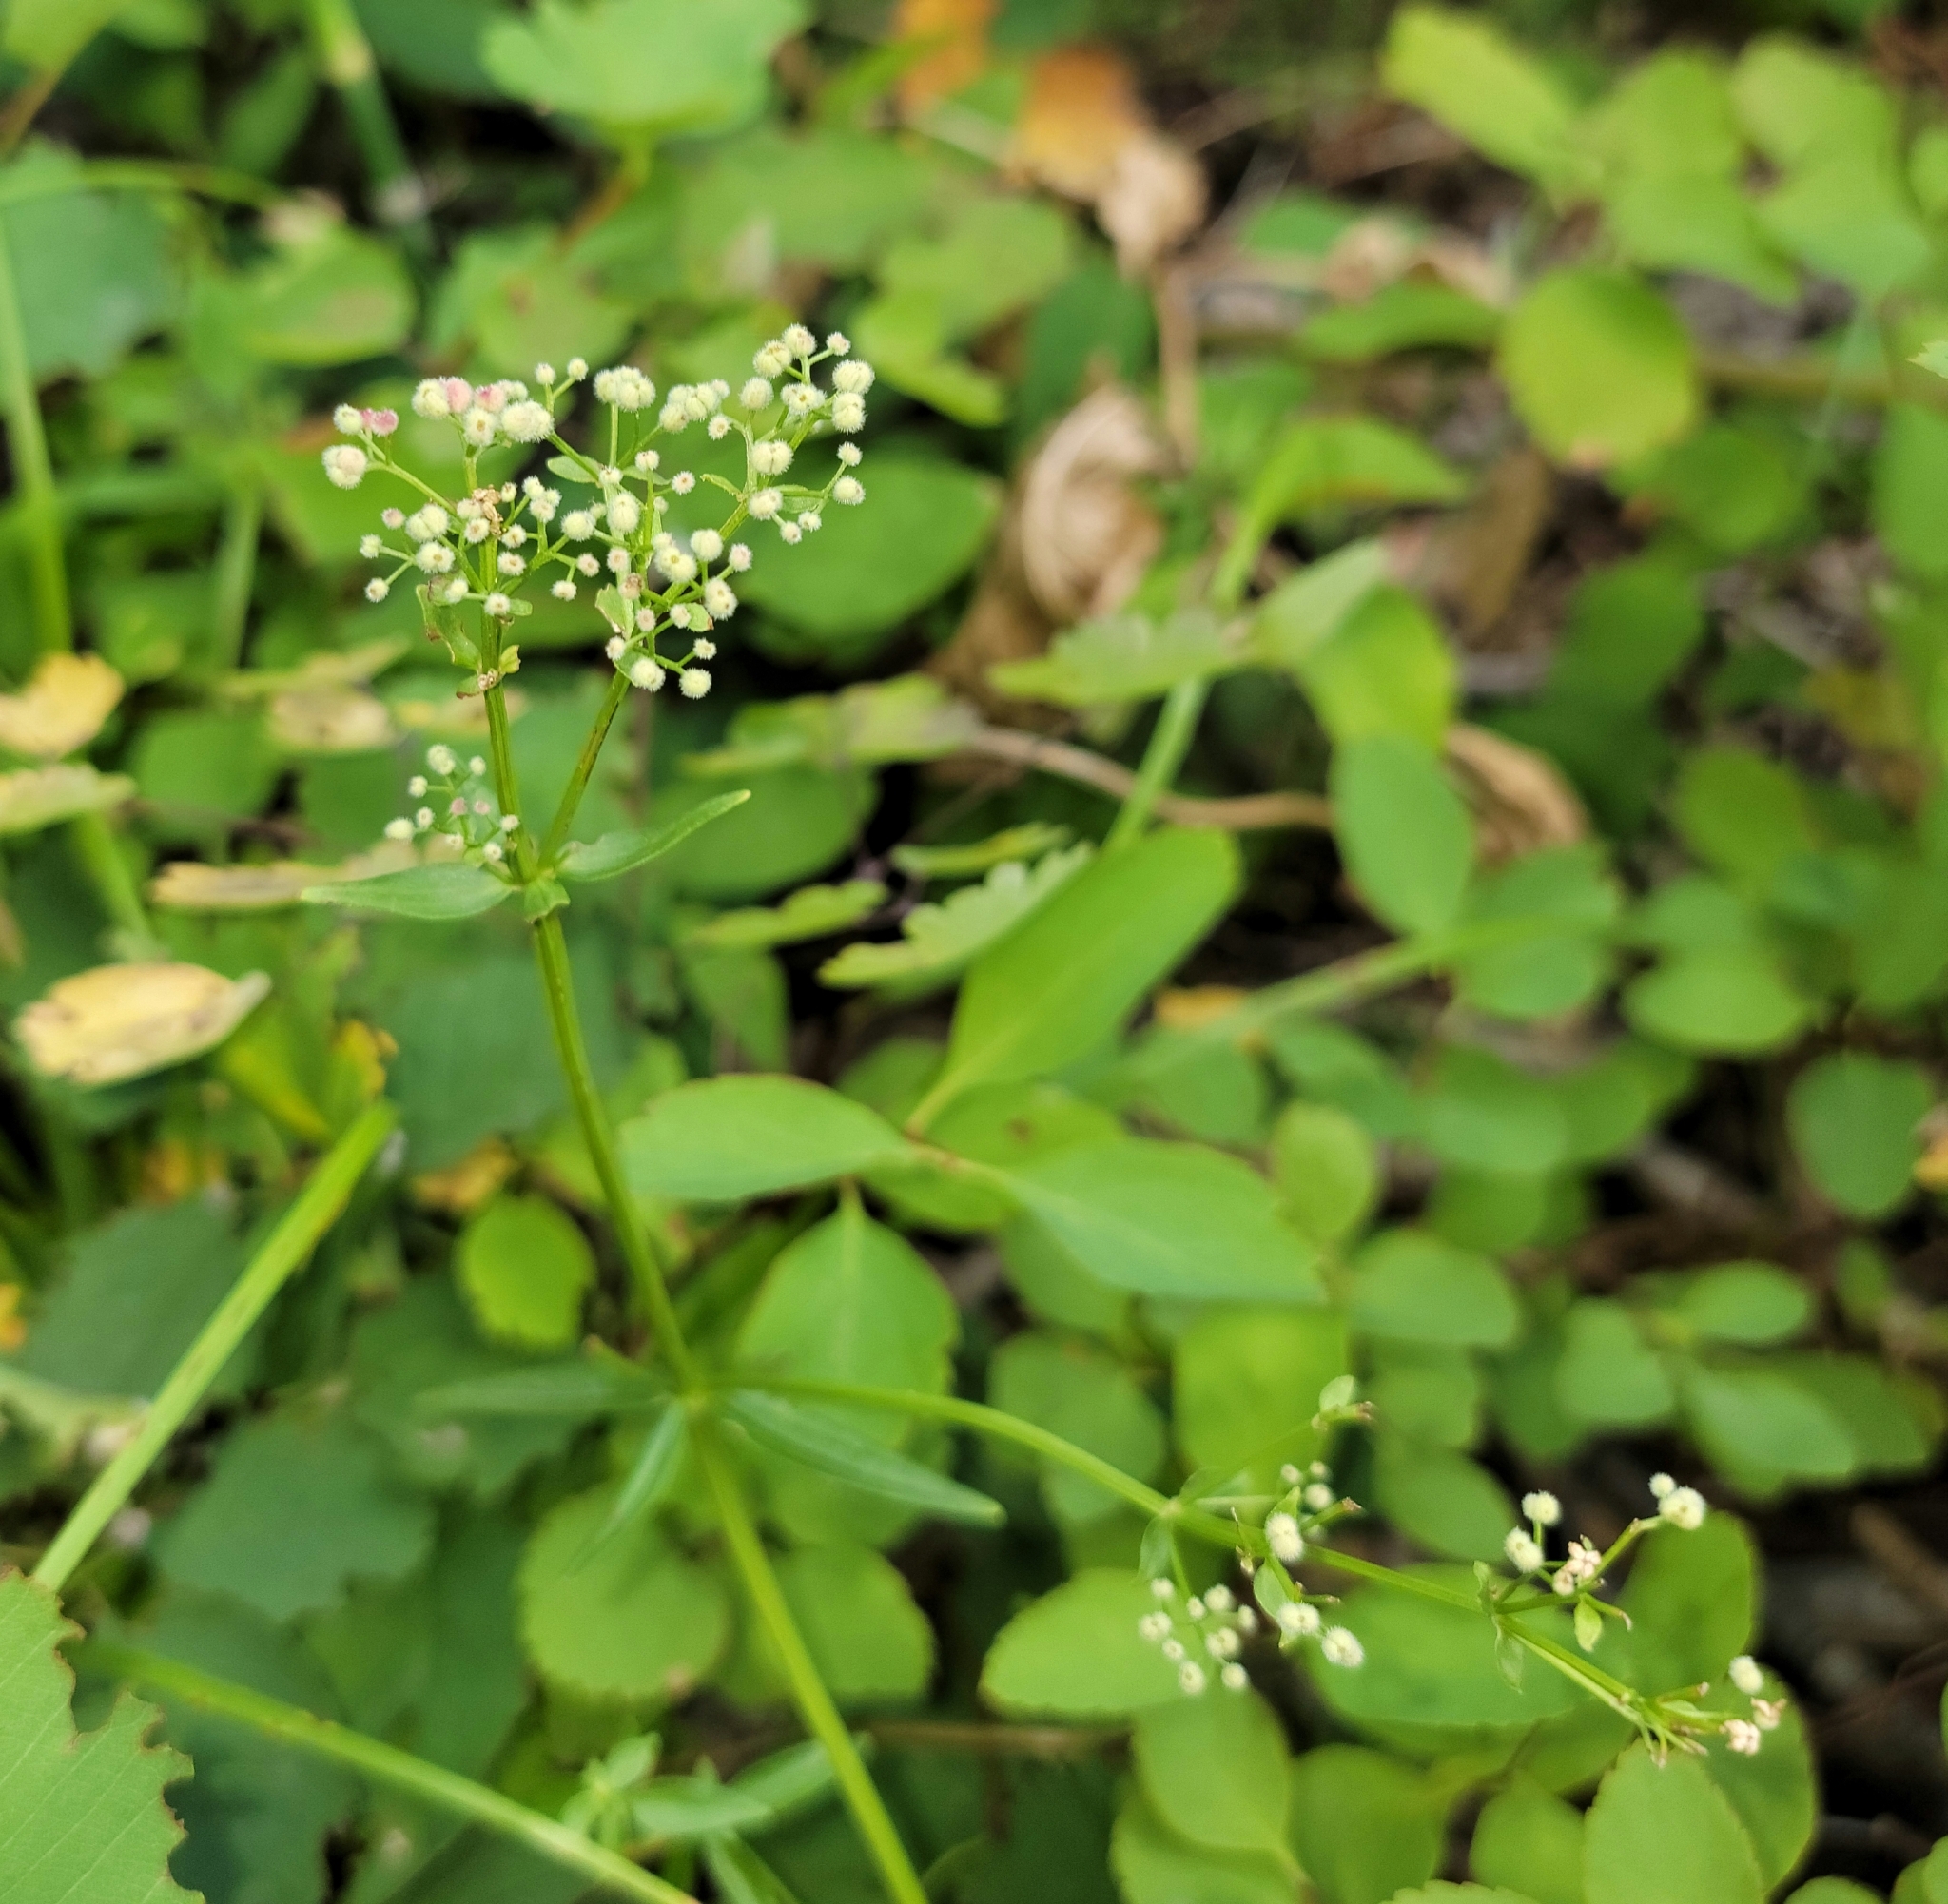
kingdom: Plantae
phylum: Tracheophyta
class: Magnoliopsida
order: Gentianales
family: Rubiaceae
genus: Galium
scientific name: Galium boreale
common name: Northern bedstraw
